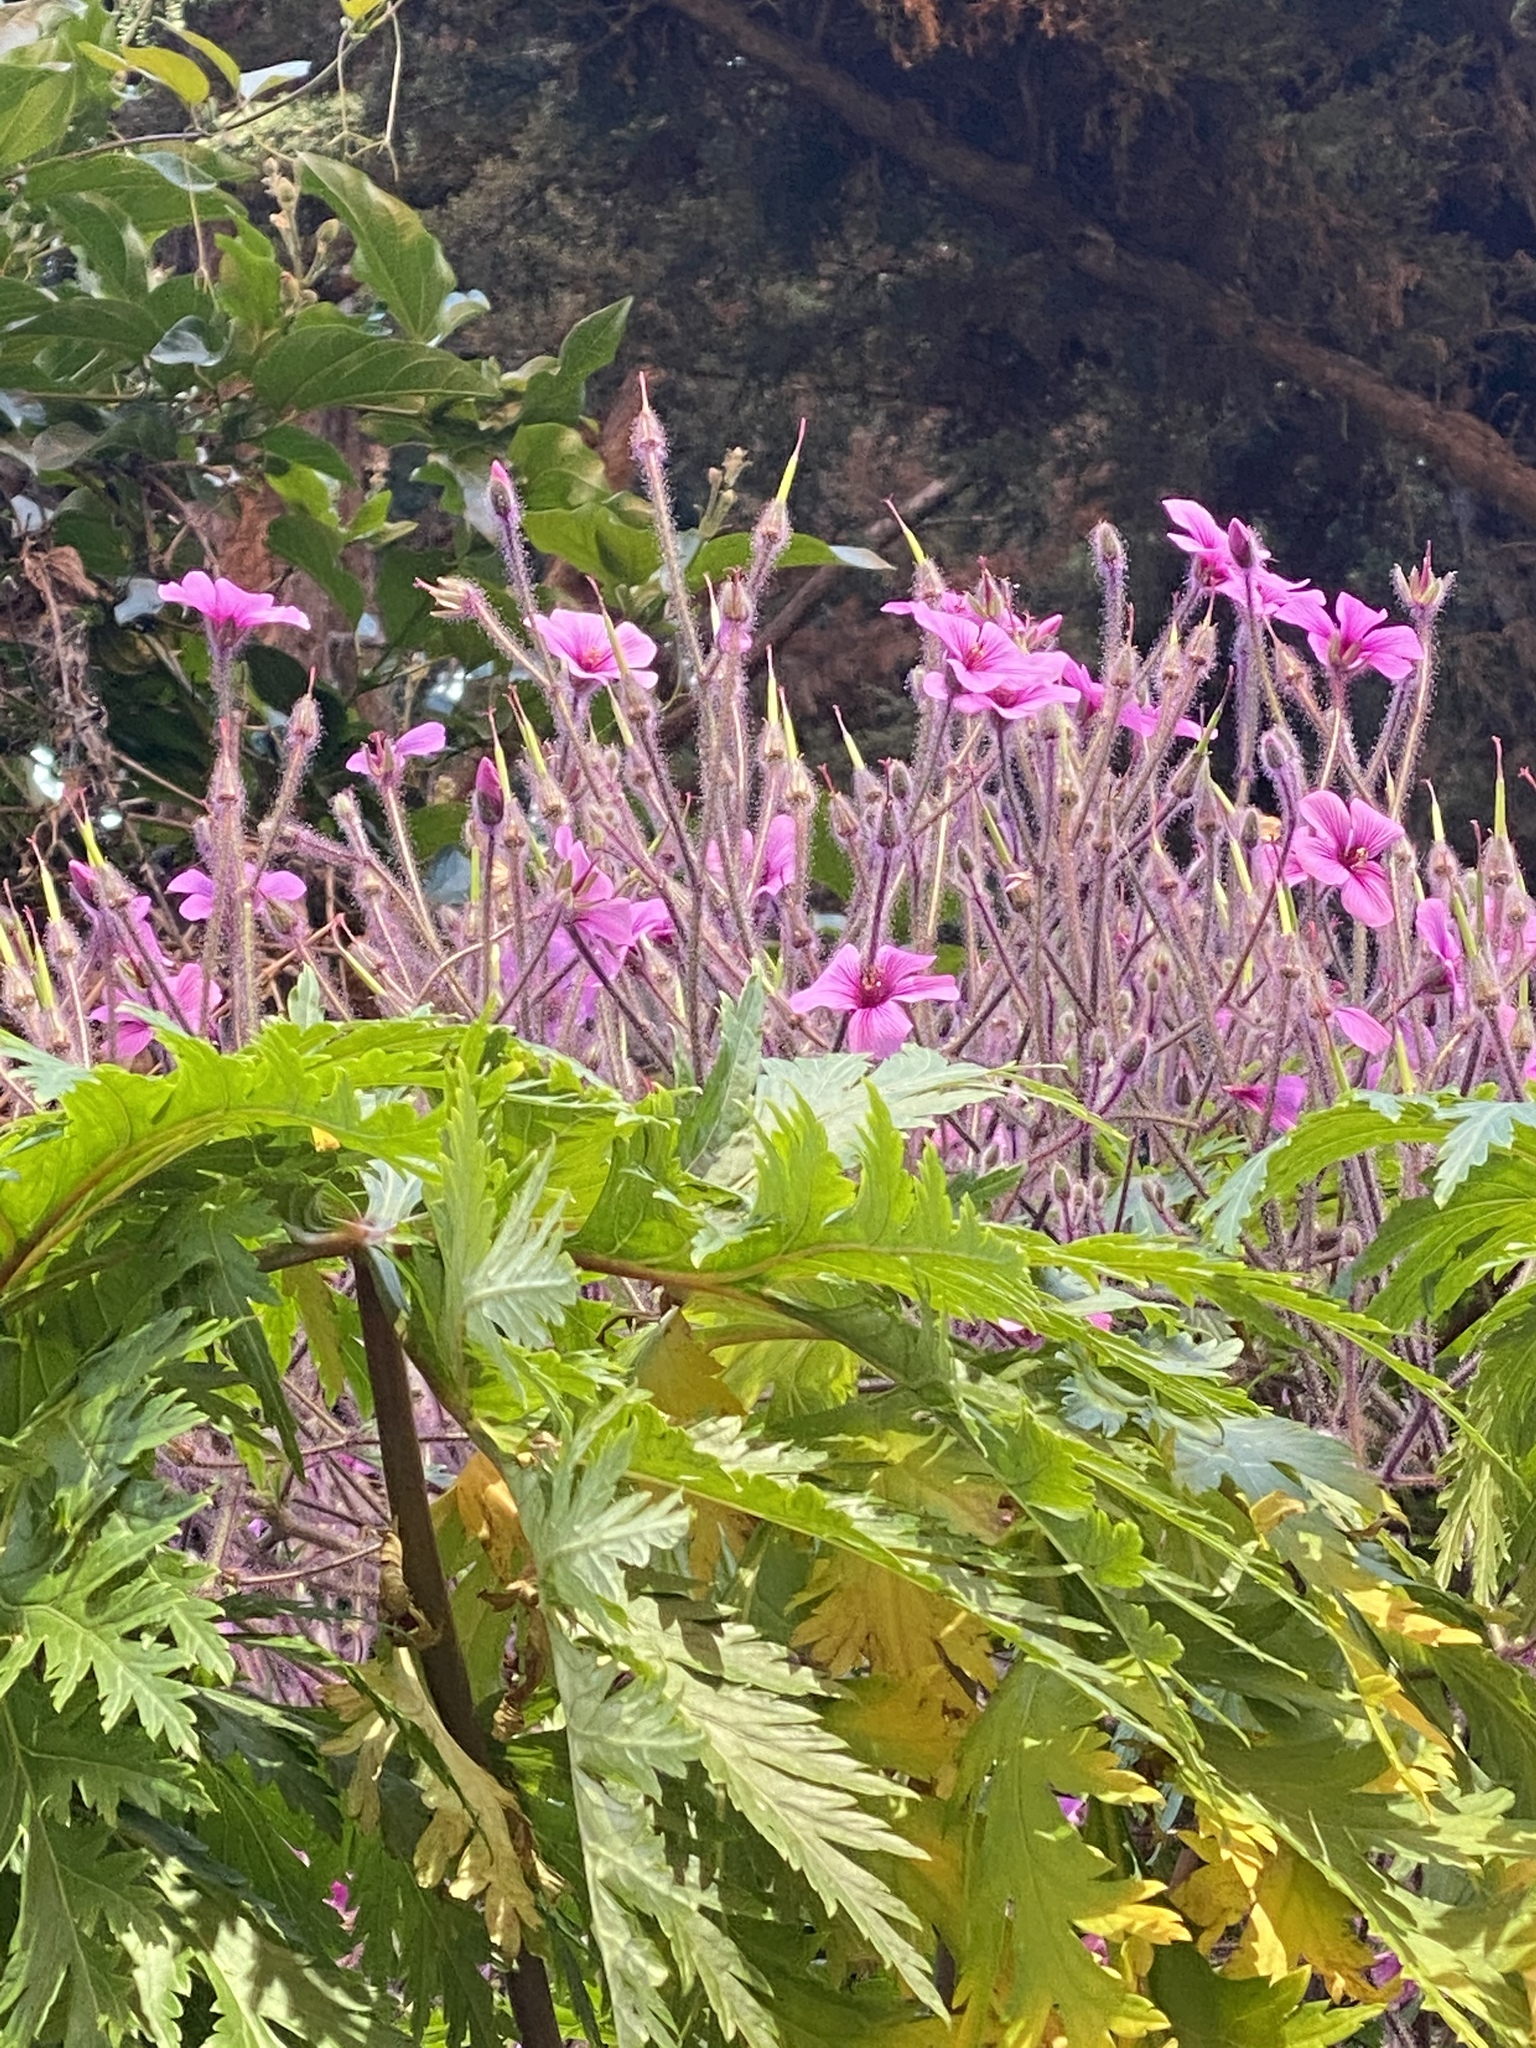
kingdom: Plantae
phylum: Tracheophyta
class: Magnoliopsida
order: Geraniales
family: Geraniaceae
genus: Geranium
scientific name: Geranium maderense
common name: Giant herb-robert
